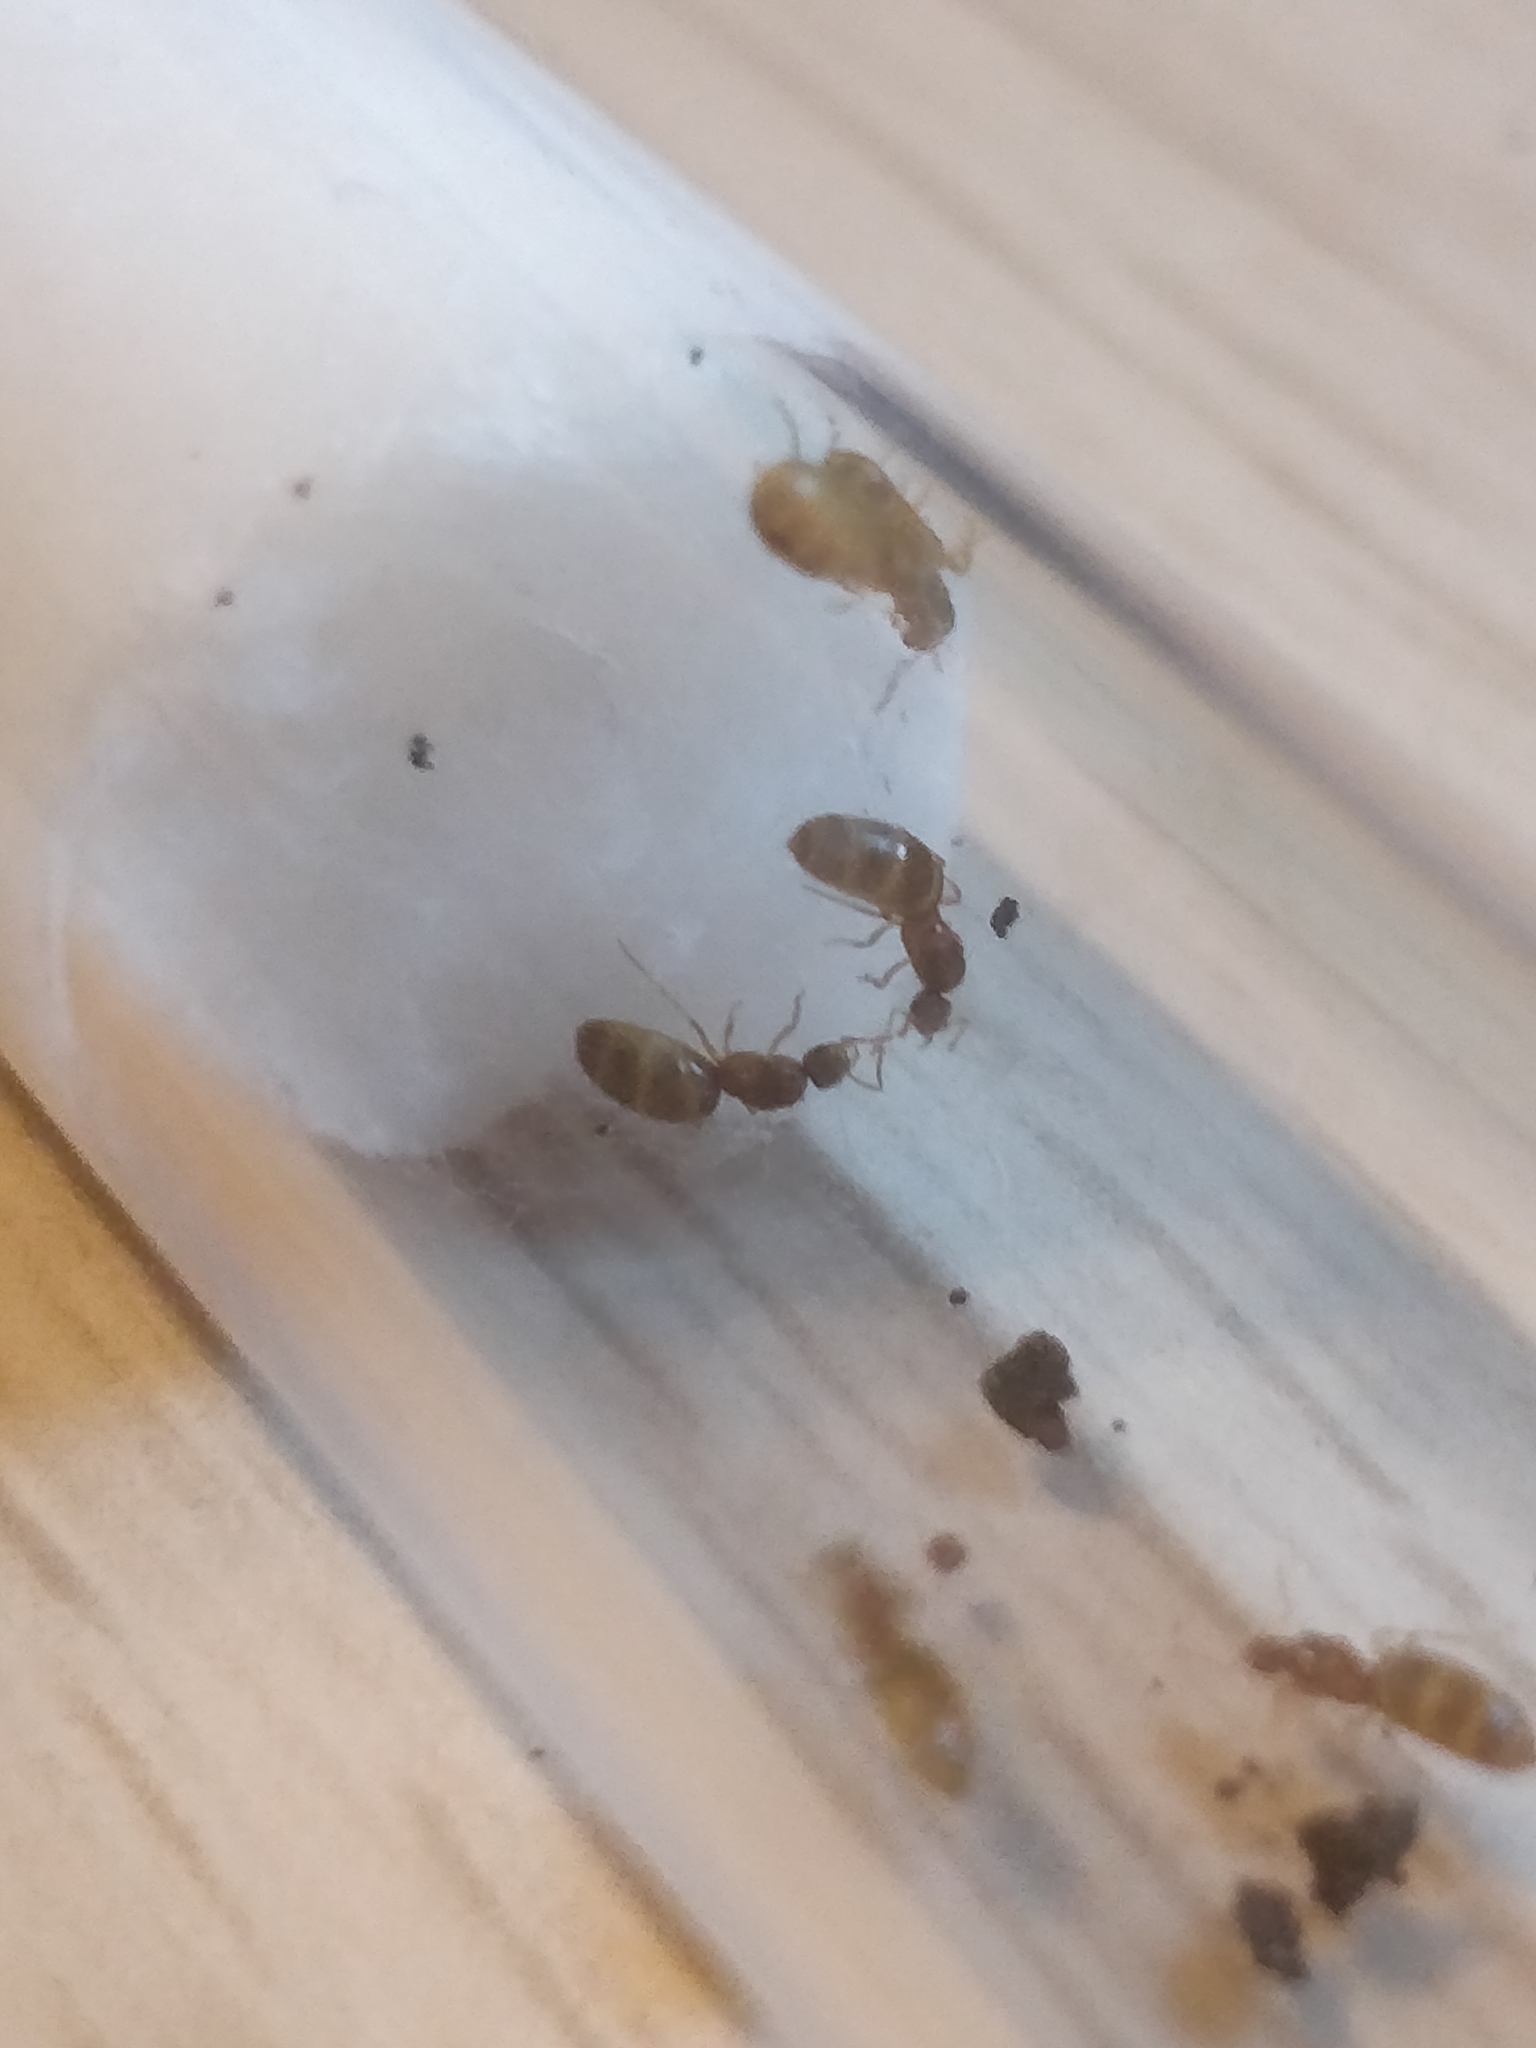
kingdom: Animalia
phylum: Arthropoda
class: Insecta
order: Hymenoptera
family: Formicidae
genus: Brachymyrmex
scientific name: Brachymyrmex depilis
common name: Hairless rover ant
